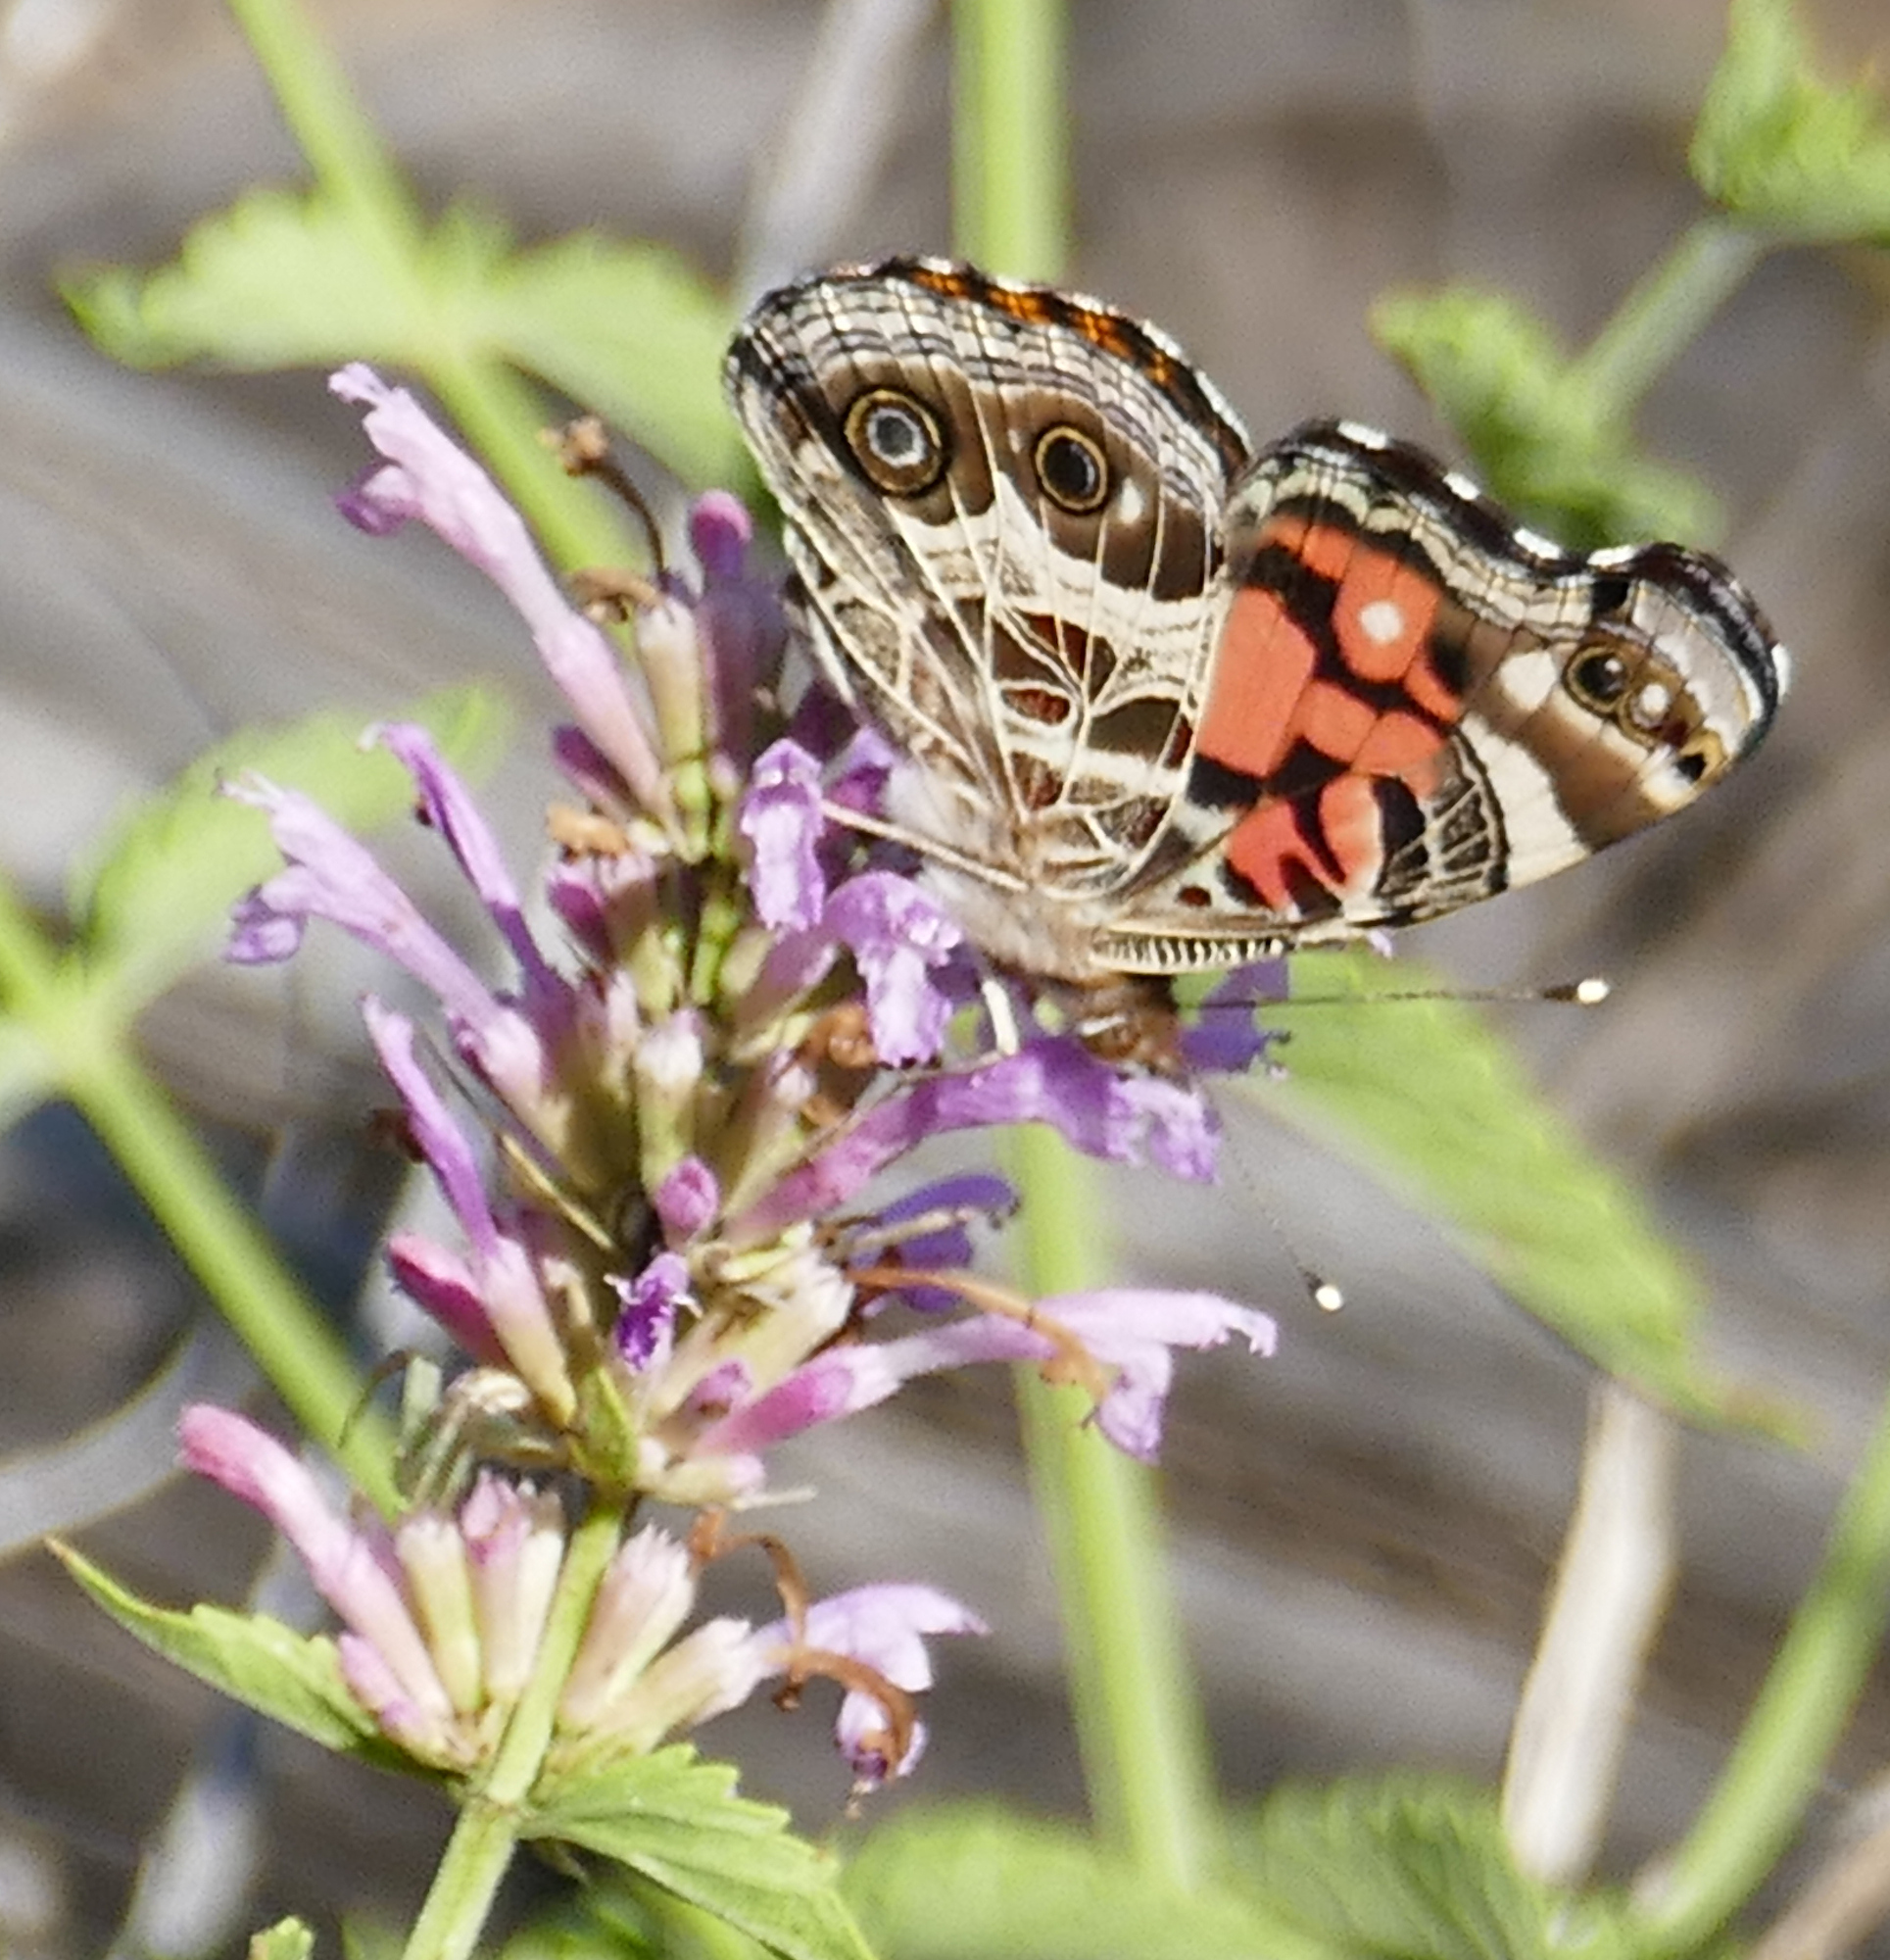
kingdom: Animalia
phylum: Arthropoda
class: Insecta
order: Lepidoptera
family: Nymphalidae
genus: Vanessa
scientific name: Vanessa virginiensis
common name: American lady
